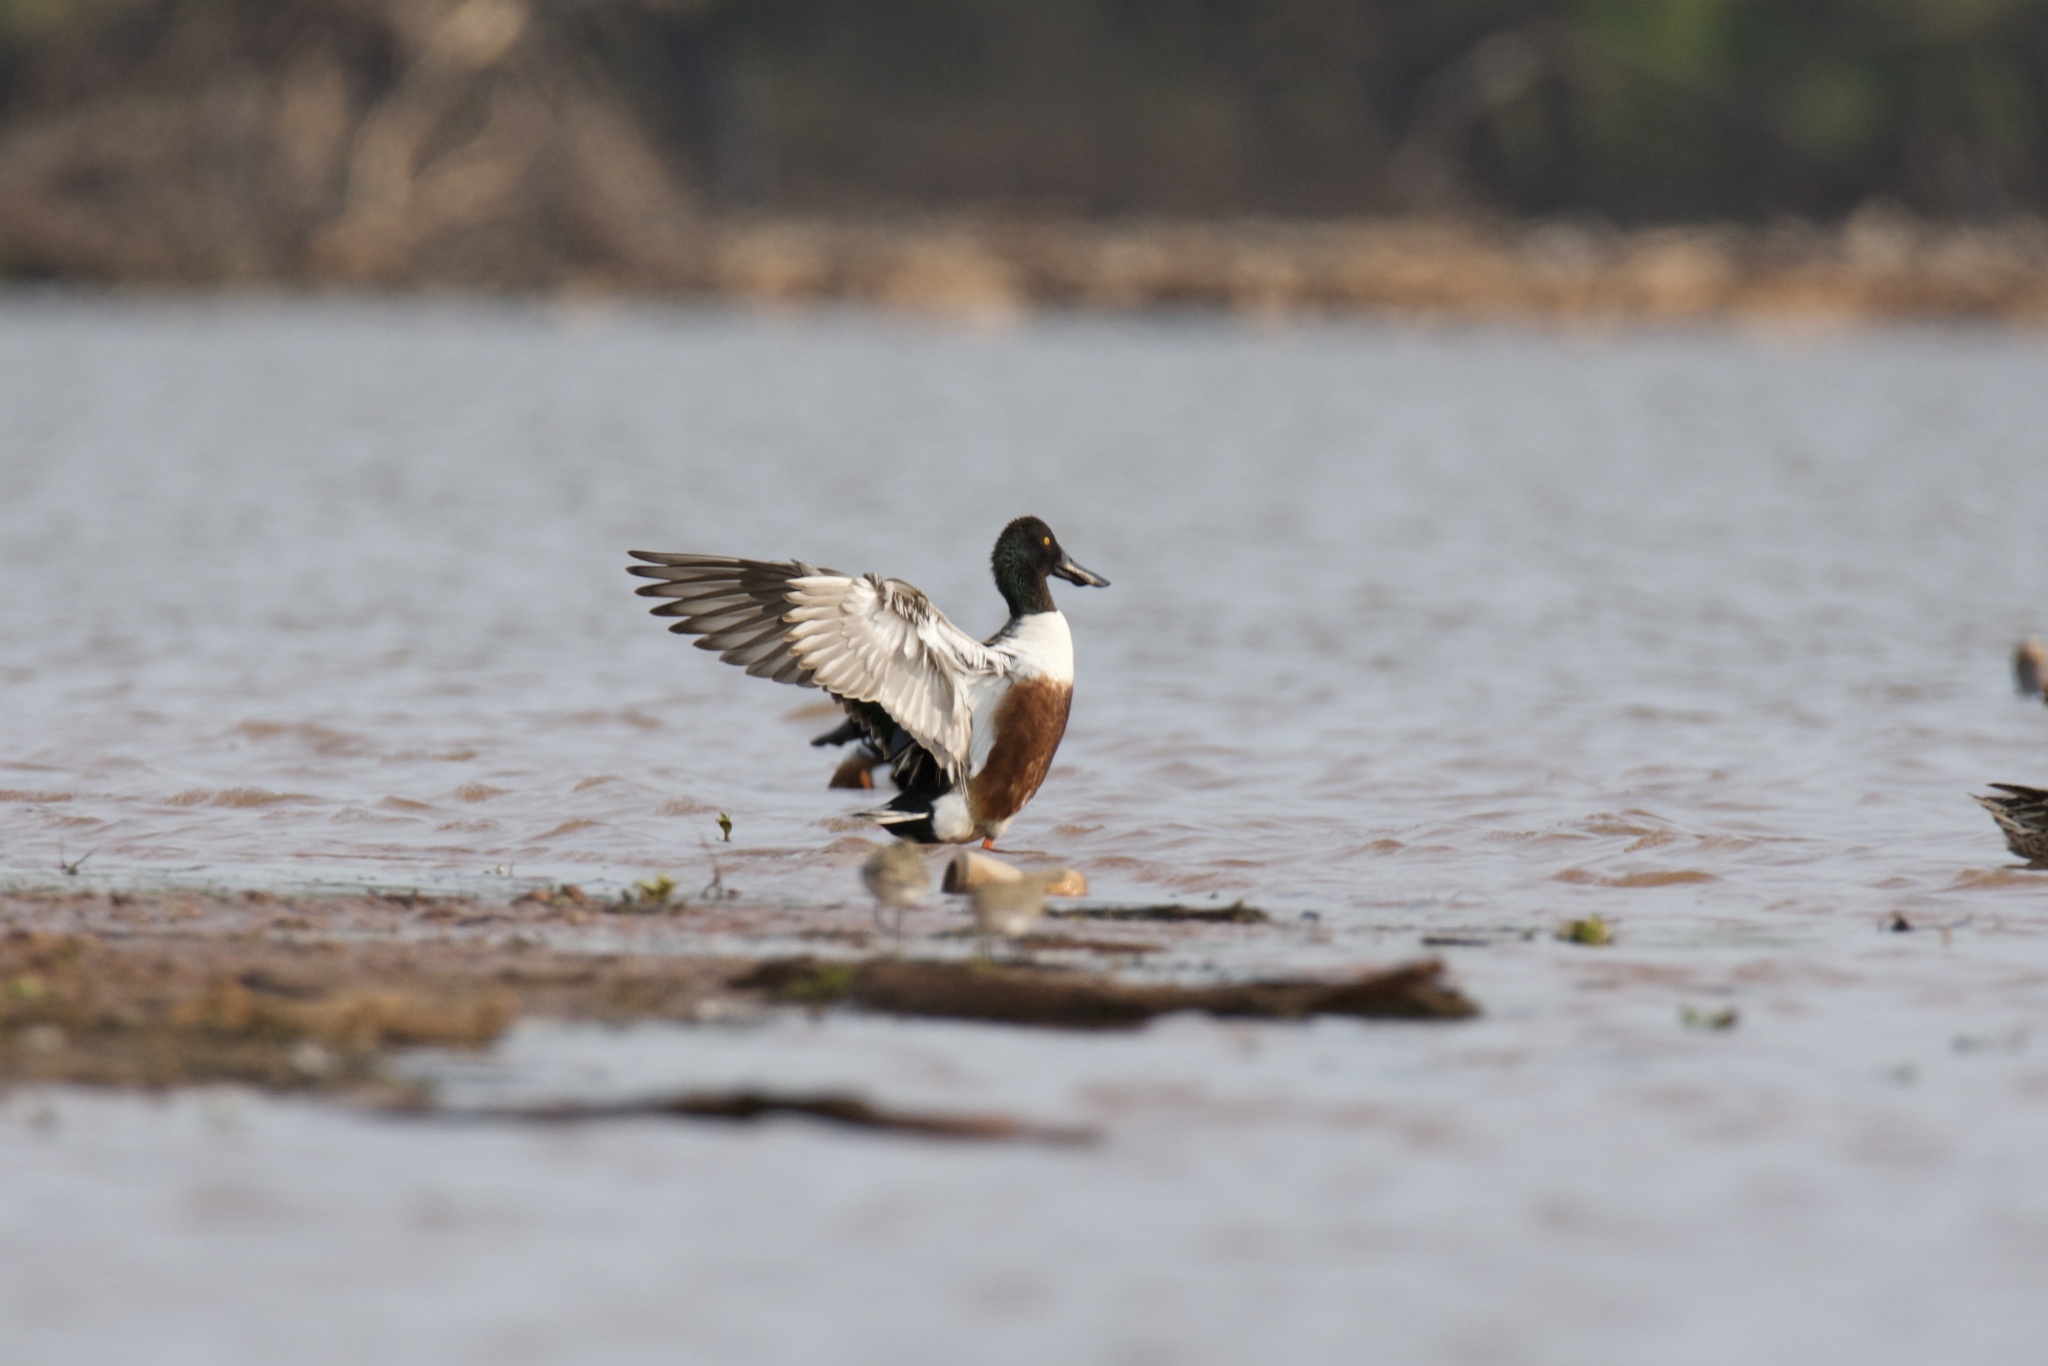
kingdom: Animalia
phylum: Chordata
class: Aves
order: Anseriformes
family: Anatidae
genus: Spatula
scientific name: Spatula clypeata
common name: Northern shoveler
